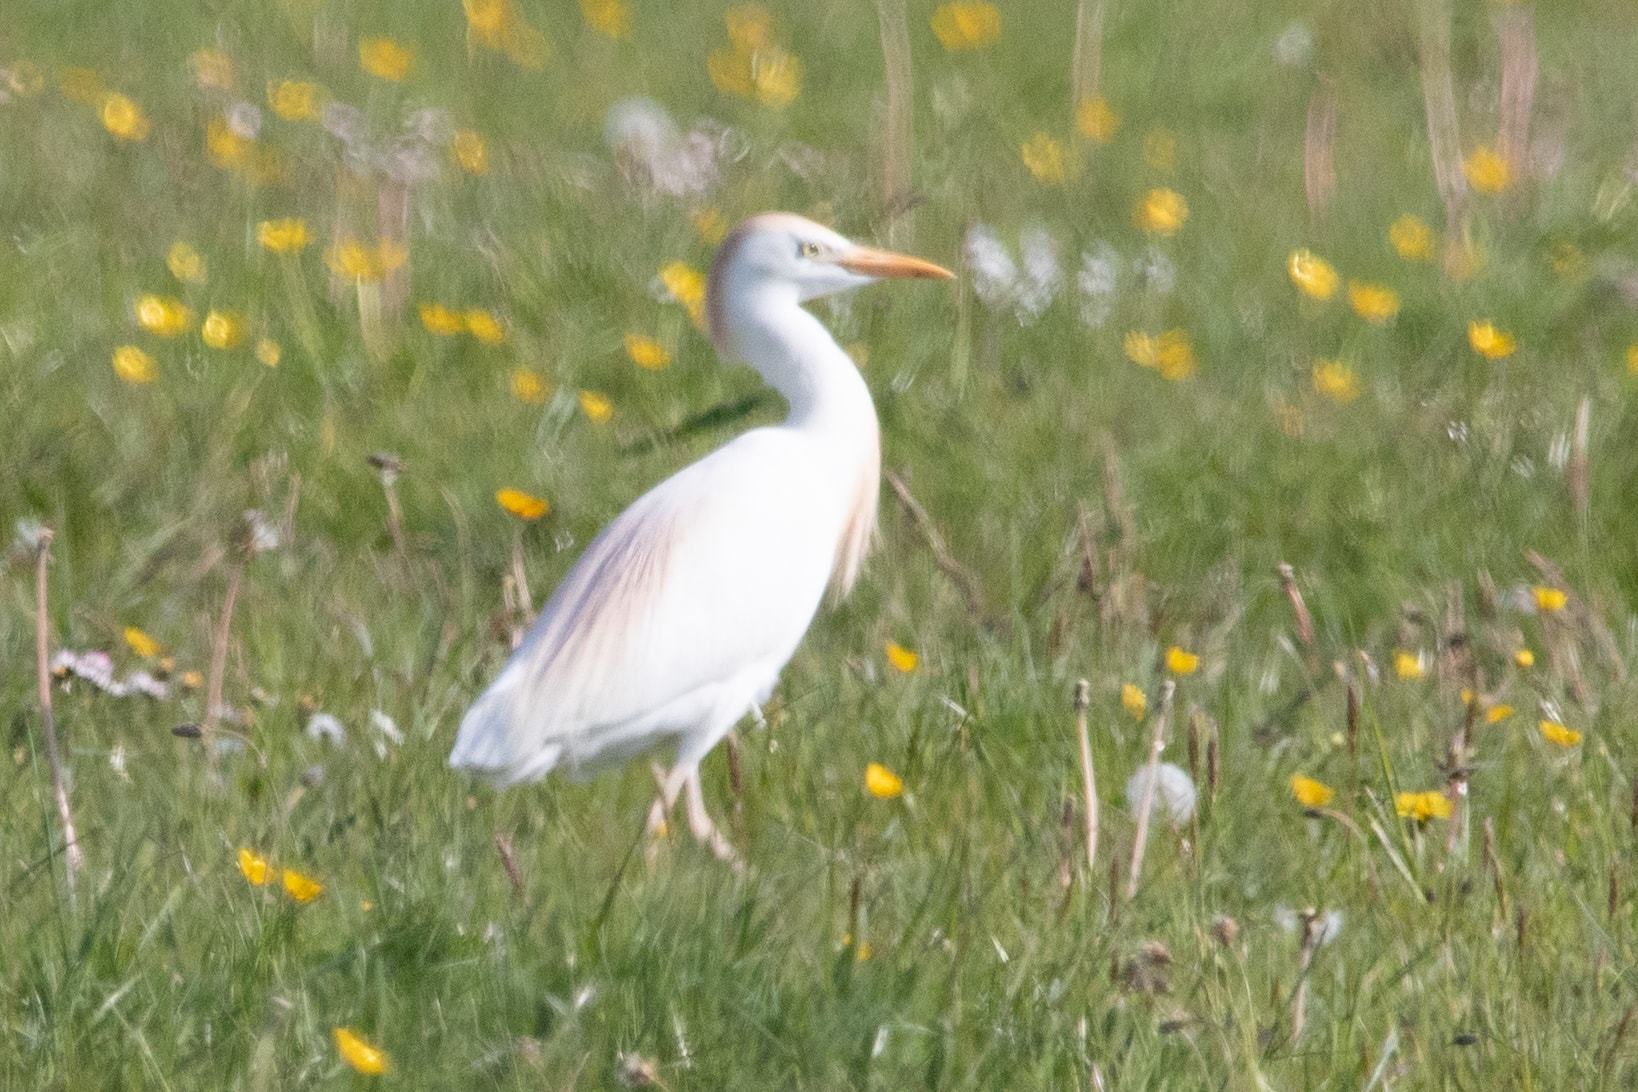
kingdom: Animalia
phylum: Chordata
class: Aves
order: Pelecaniformes
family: Ardeidae
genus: Bubulcus
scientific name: Bubulcus ibis
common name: Cattle egret
